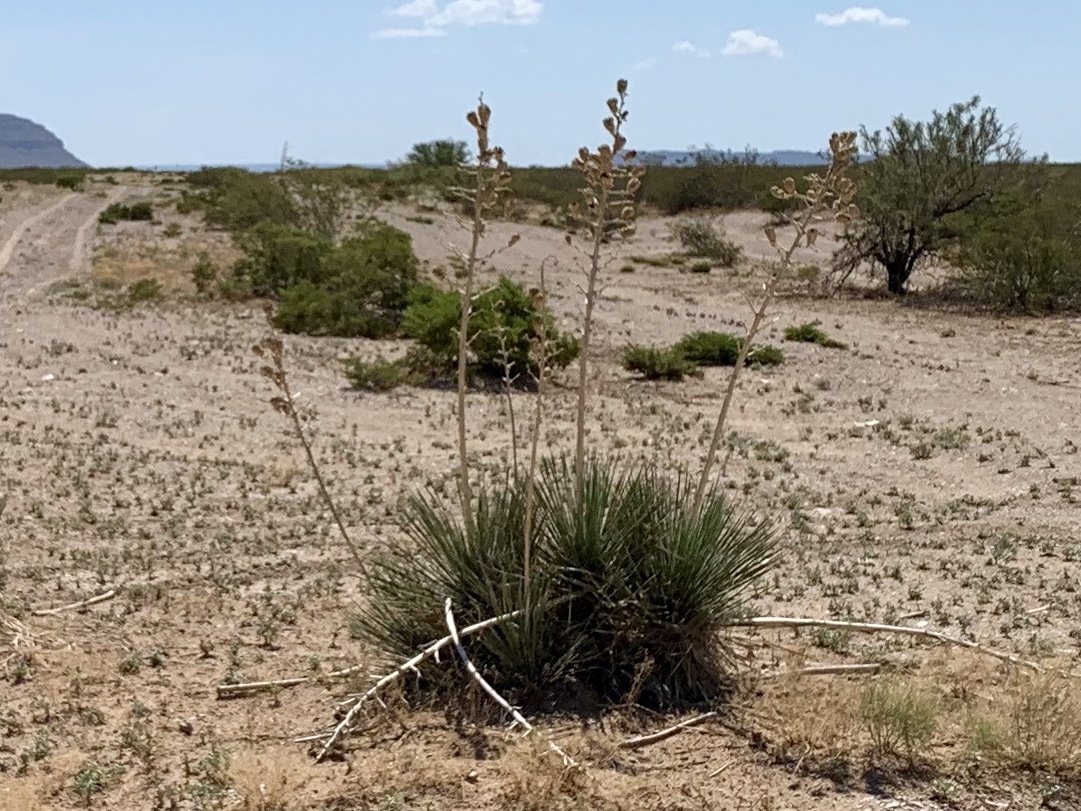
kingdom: Plantae
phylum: Tracheophyta
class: Liliopsida
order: Asparagales
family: Asparagaceae
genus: Yucca
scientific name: Yucca elata
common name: Palmella
